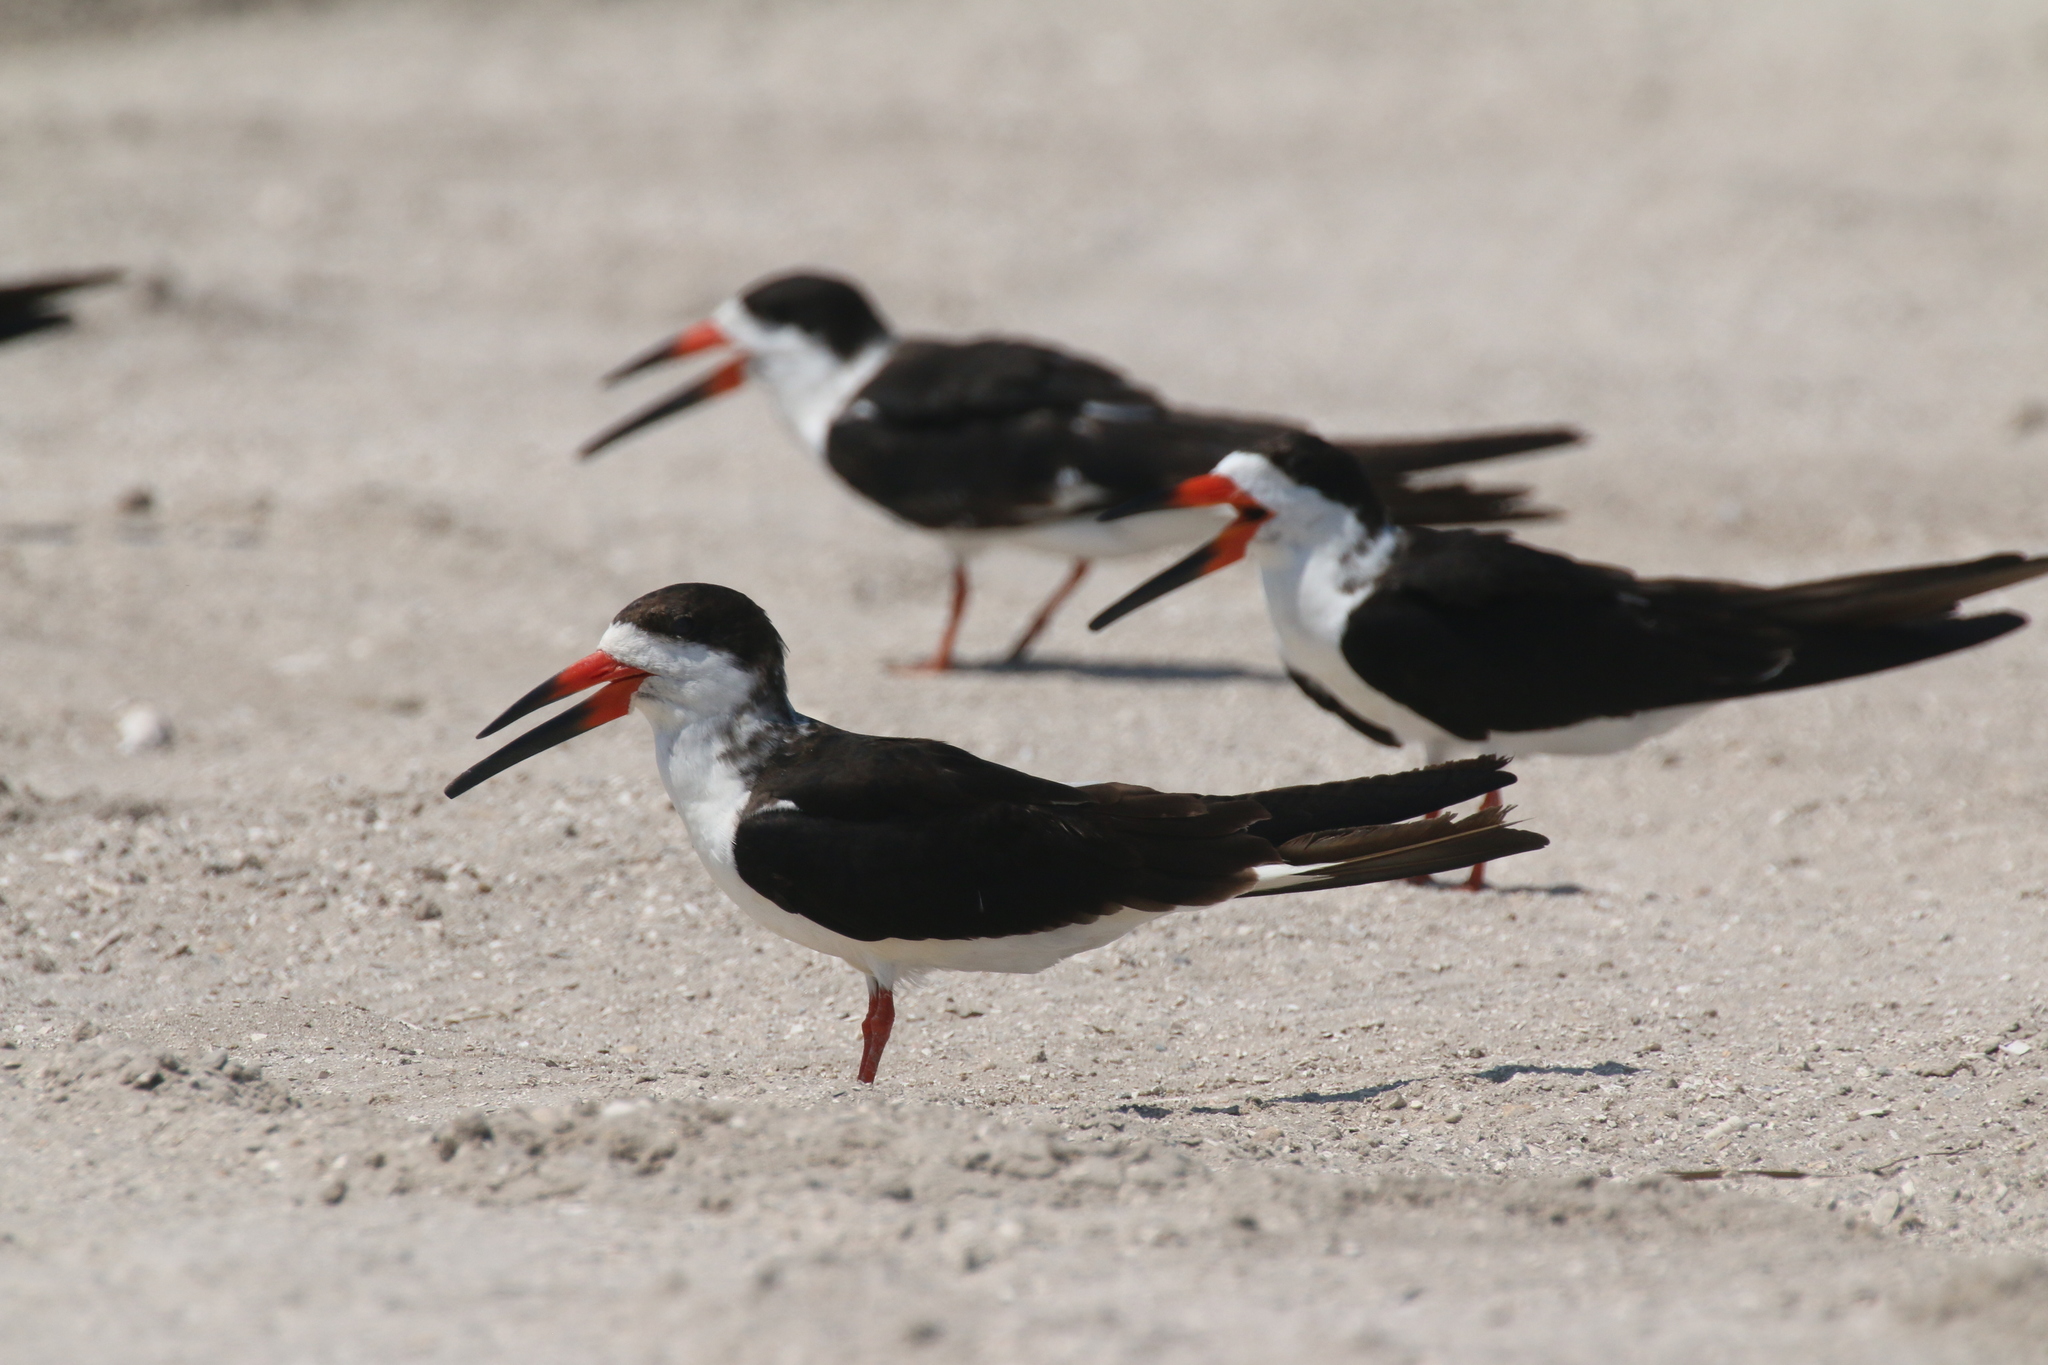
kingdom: Animalia
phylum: Chordata
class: Aves
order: Charadriiformes
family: Laridae
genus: Rynchops
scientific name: Rynchops niger
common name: Black skimmer
